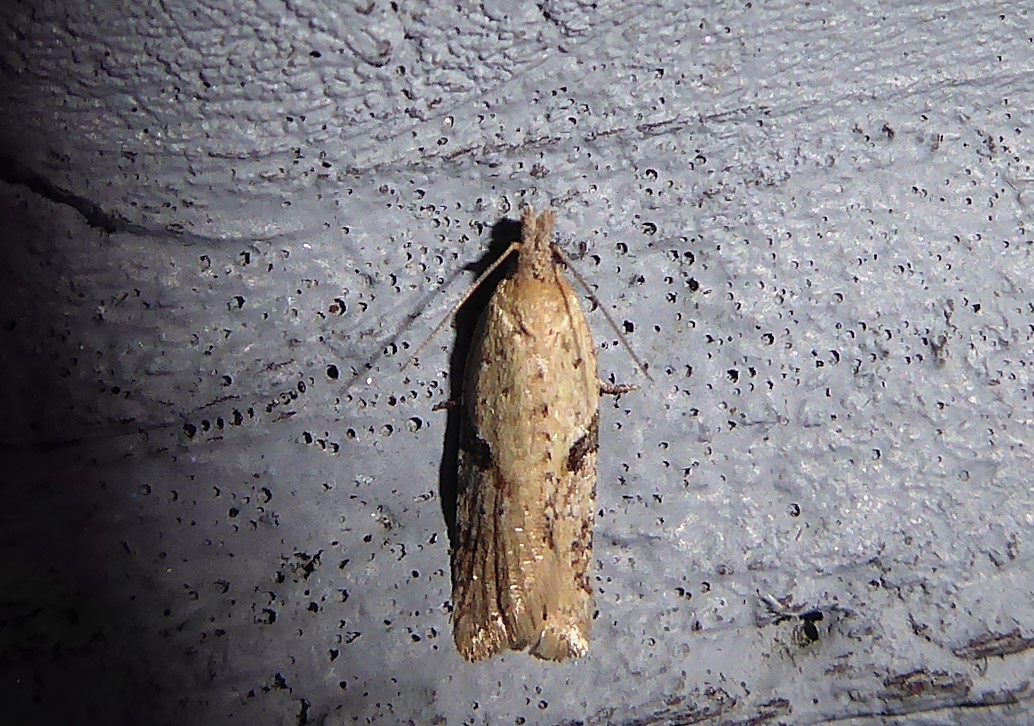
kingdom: Animalia
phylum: Arthropoda
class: Insecta
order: Lepidoptera
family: Tortricidae
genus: Capua
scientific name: Capua semiferana
